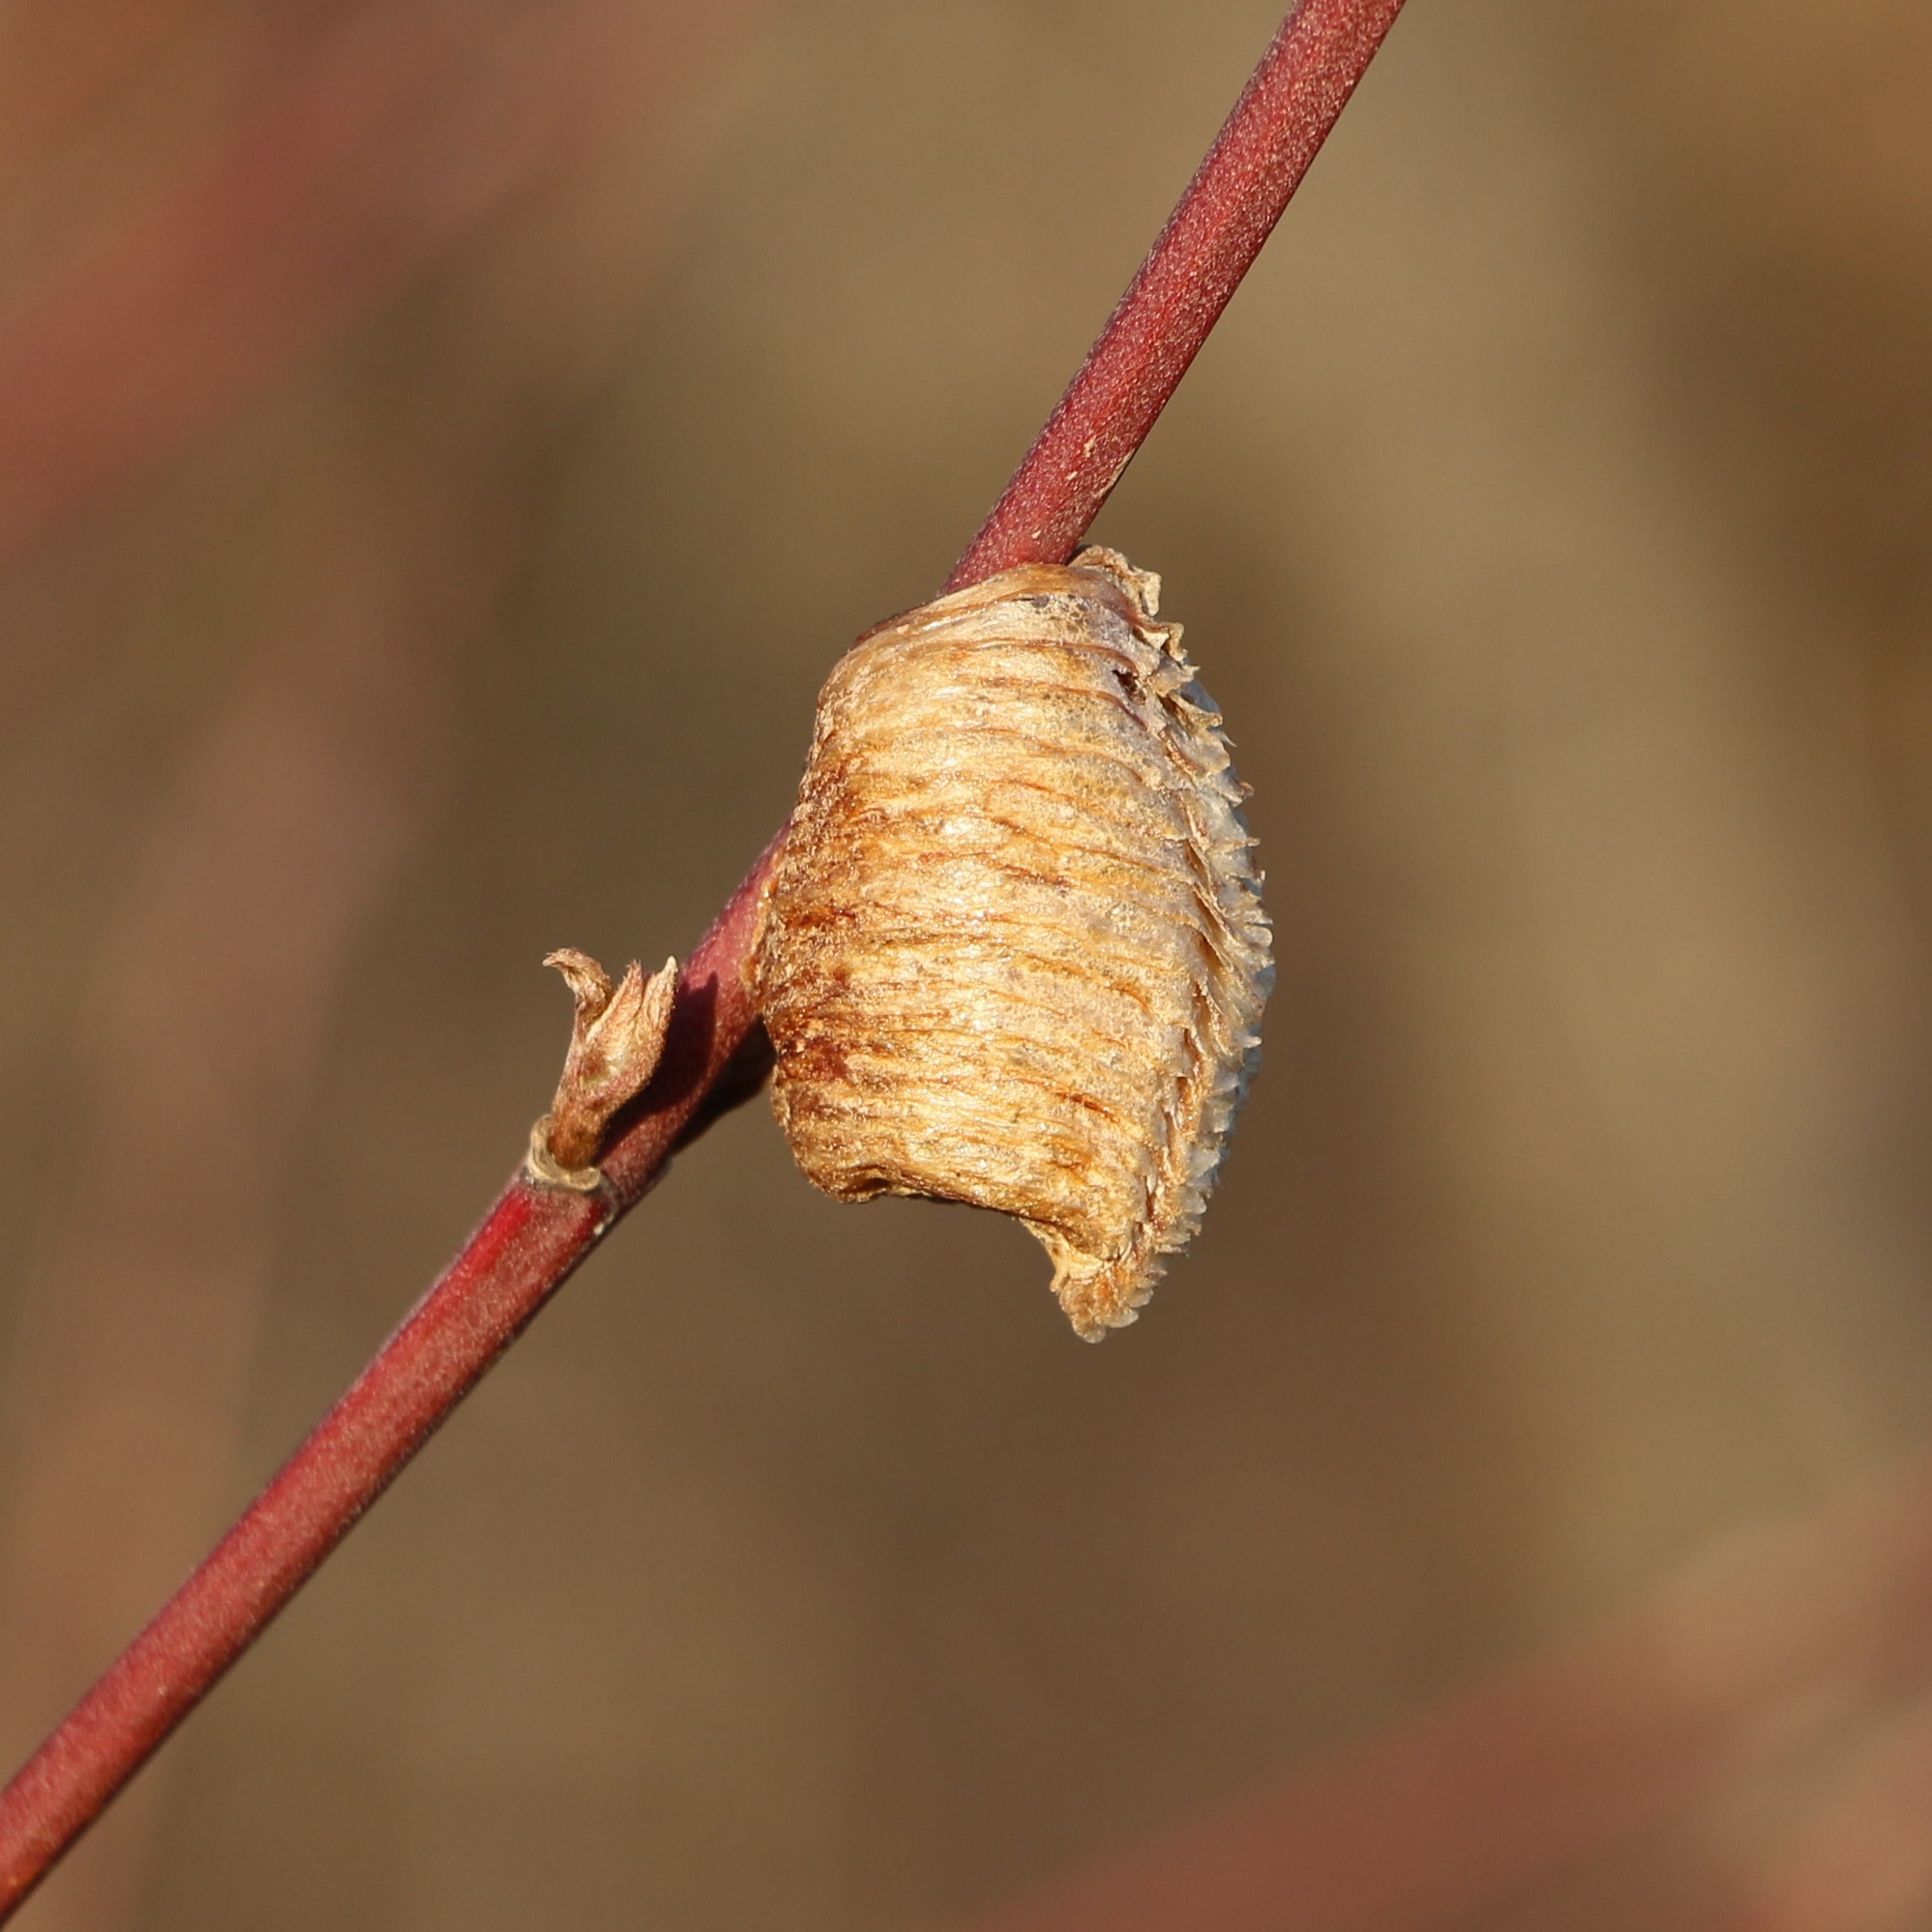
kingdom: Animalia
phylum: Arthropoda
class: Insecta
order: Mantodea
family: Mantidae
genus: Hierodula
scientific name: Hierodula transcaucasica
